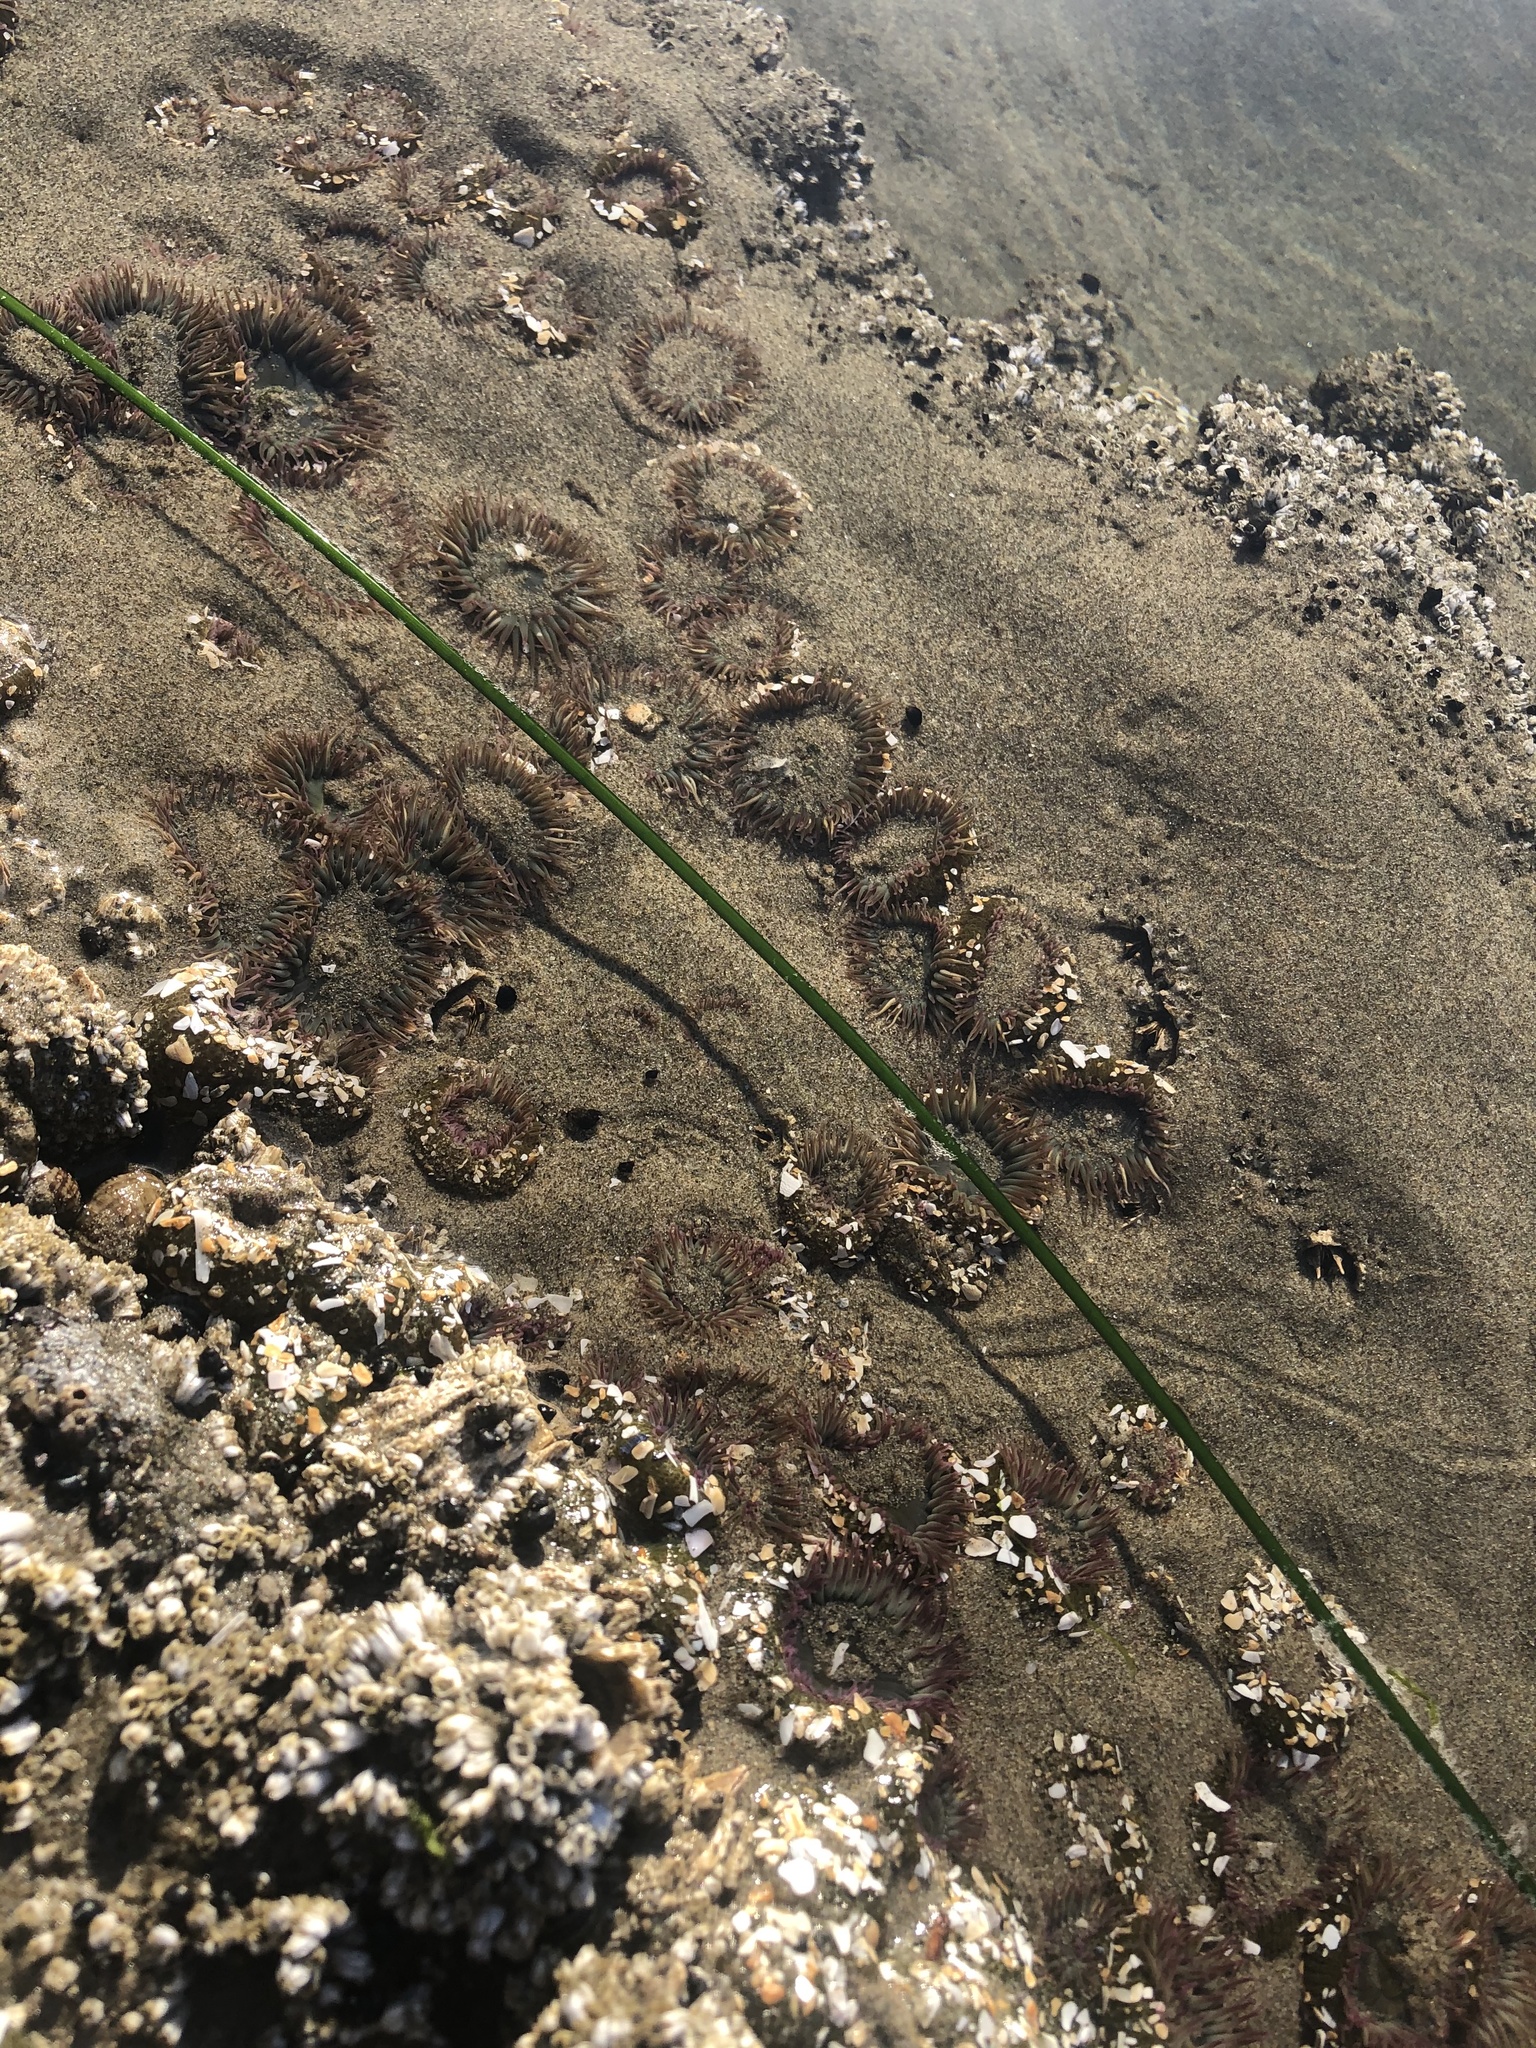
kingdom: Animalia
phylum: Cnidaria
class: Anthozoa
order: Actiniaria
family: Actiniidae
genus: Anthopleura
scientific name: Anthopleura elegantissima
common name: Clonal anemone
